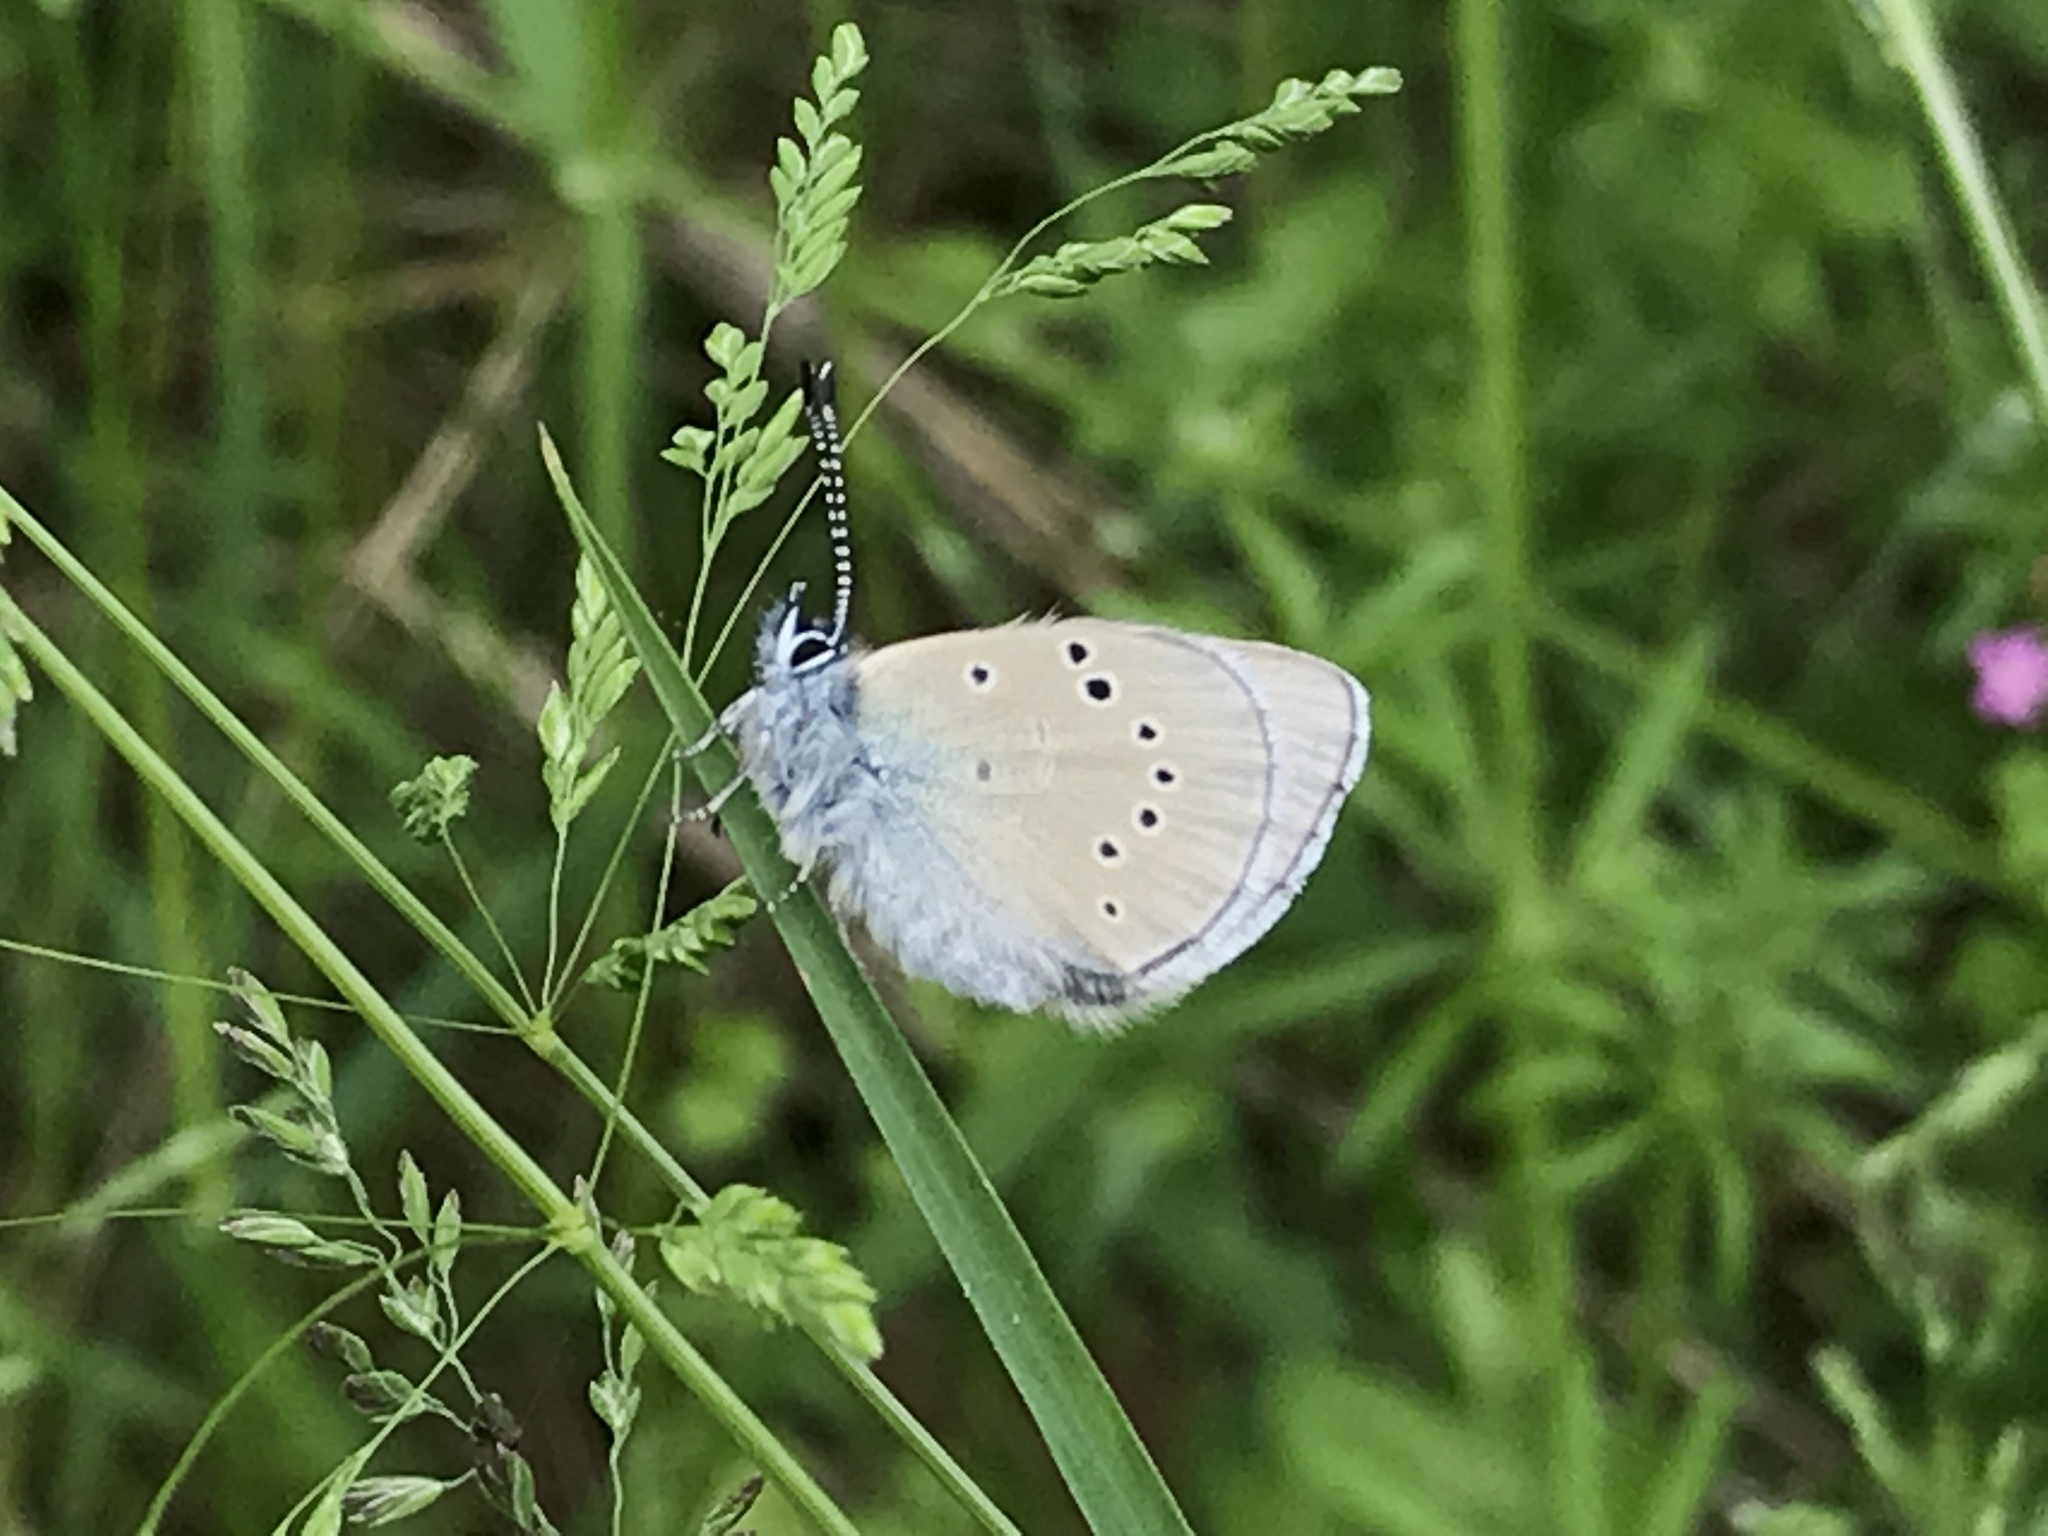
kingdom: Animalia
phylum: Arthropoda
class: Insecta
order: Lepidoptera
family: Lycaenidae
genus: Glaucopsyche
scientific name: Glaucopsyche lygdamus
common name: Silvery blue
